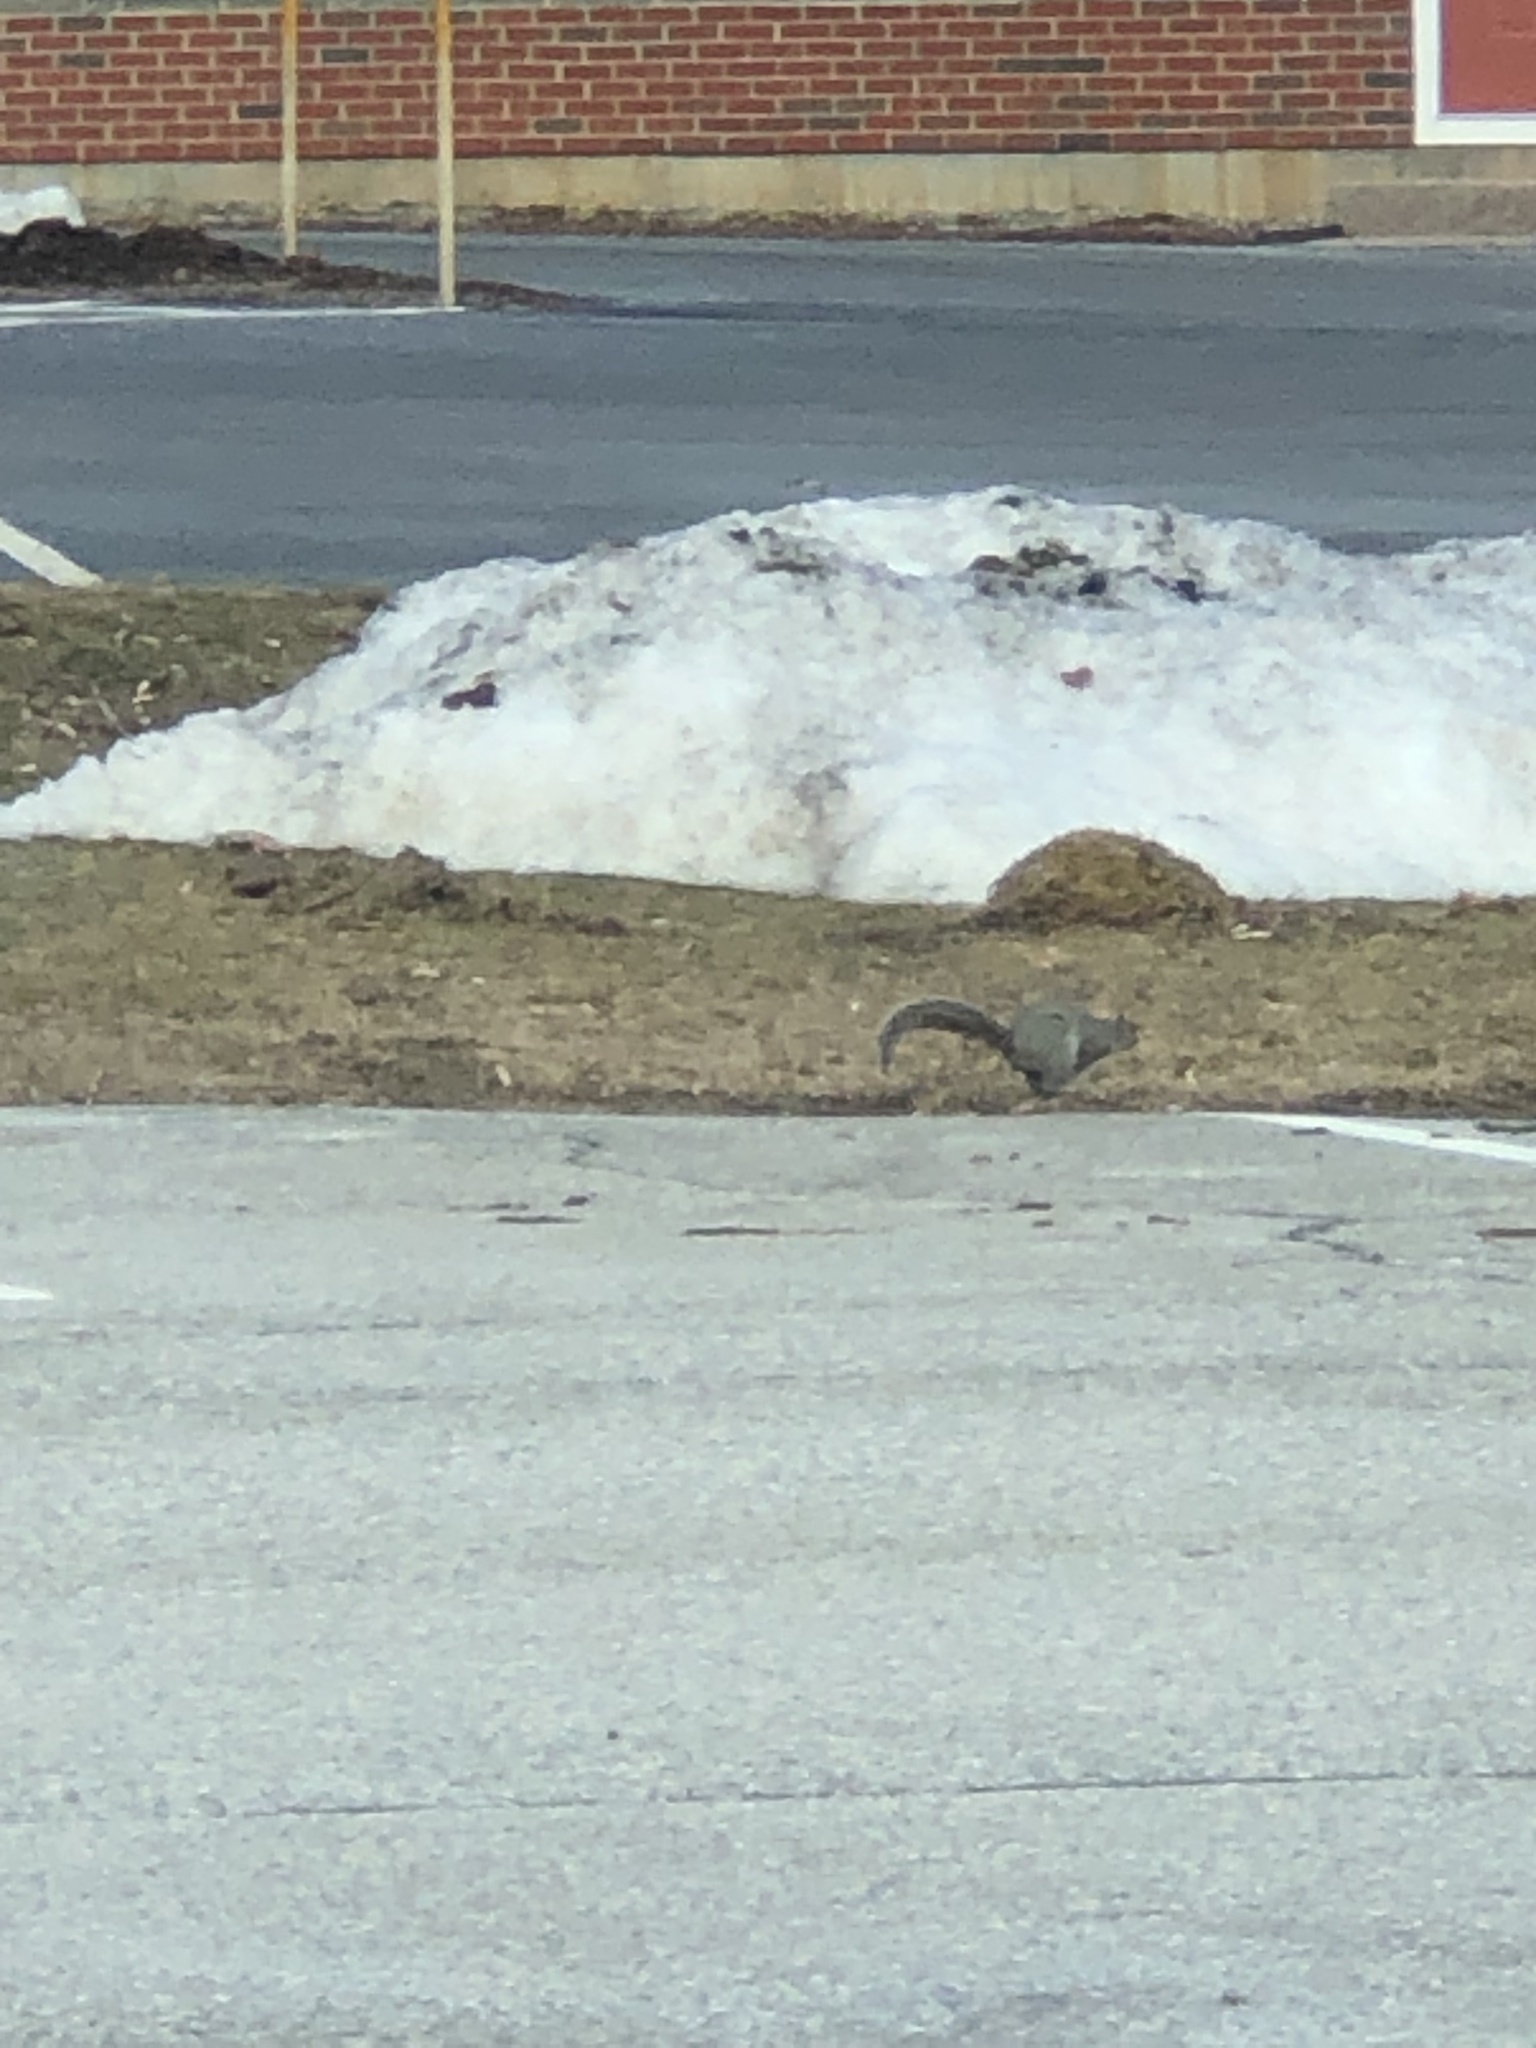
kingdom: Animalia
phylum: Chordata
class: Mammalia
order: Rodentia
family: Sciuridae
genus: Sciurus
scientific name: Sciurus carolinensis
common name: Eastern gray squirrel
